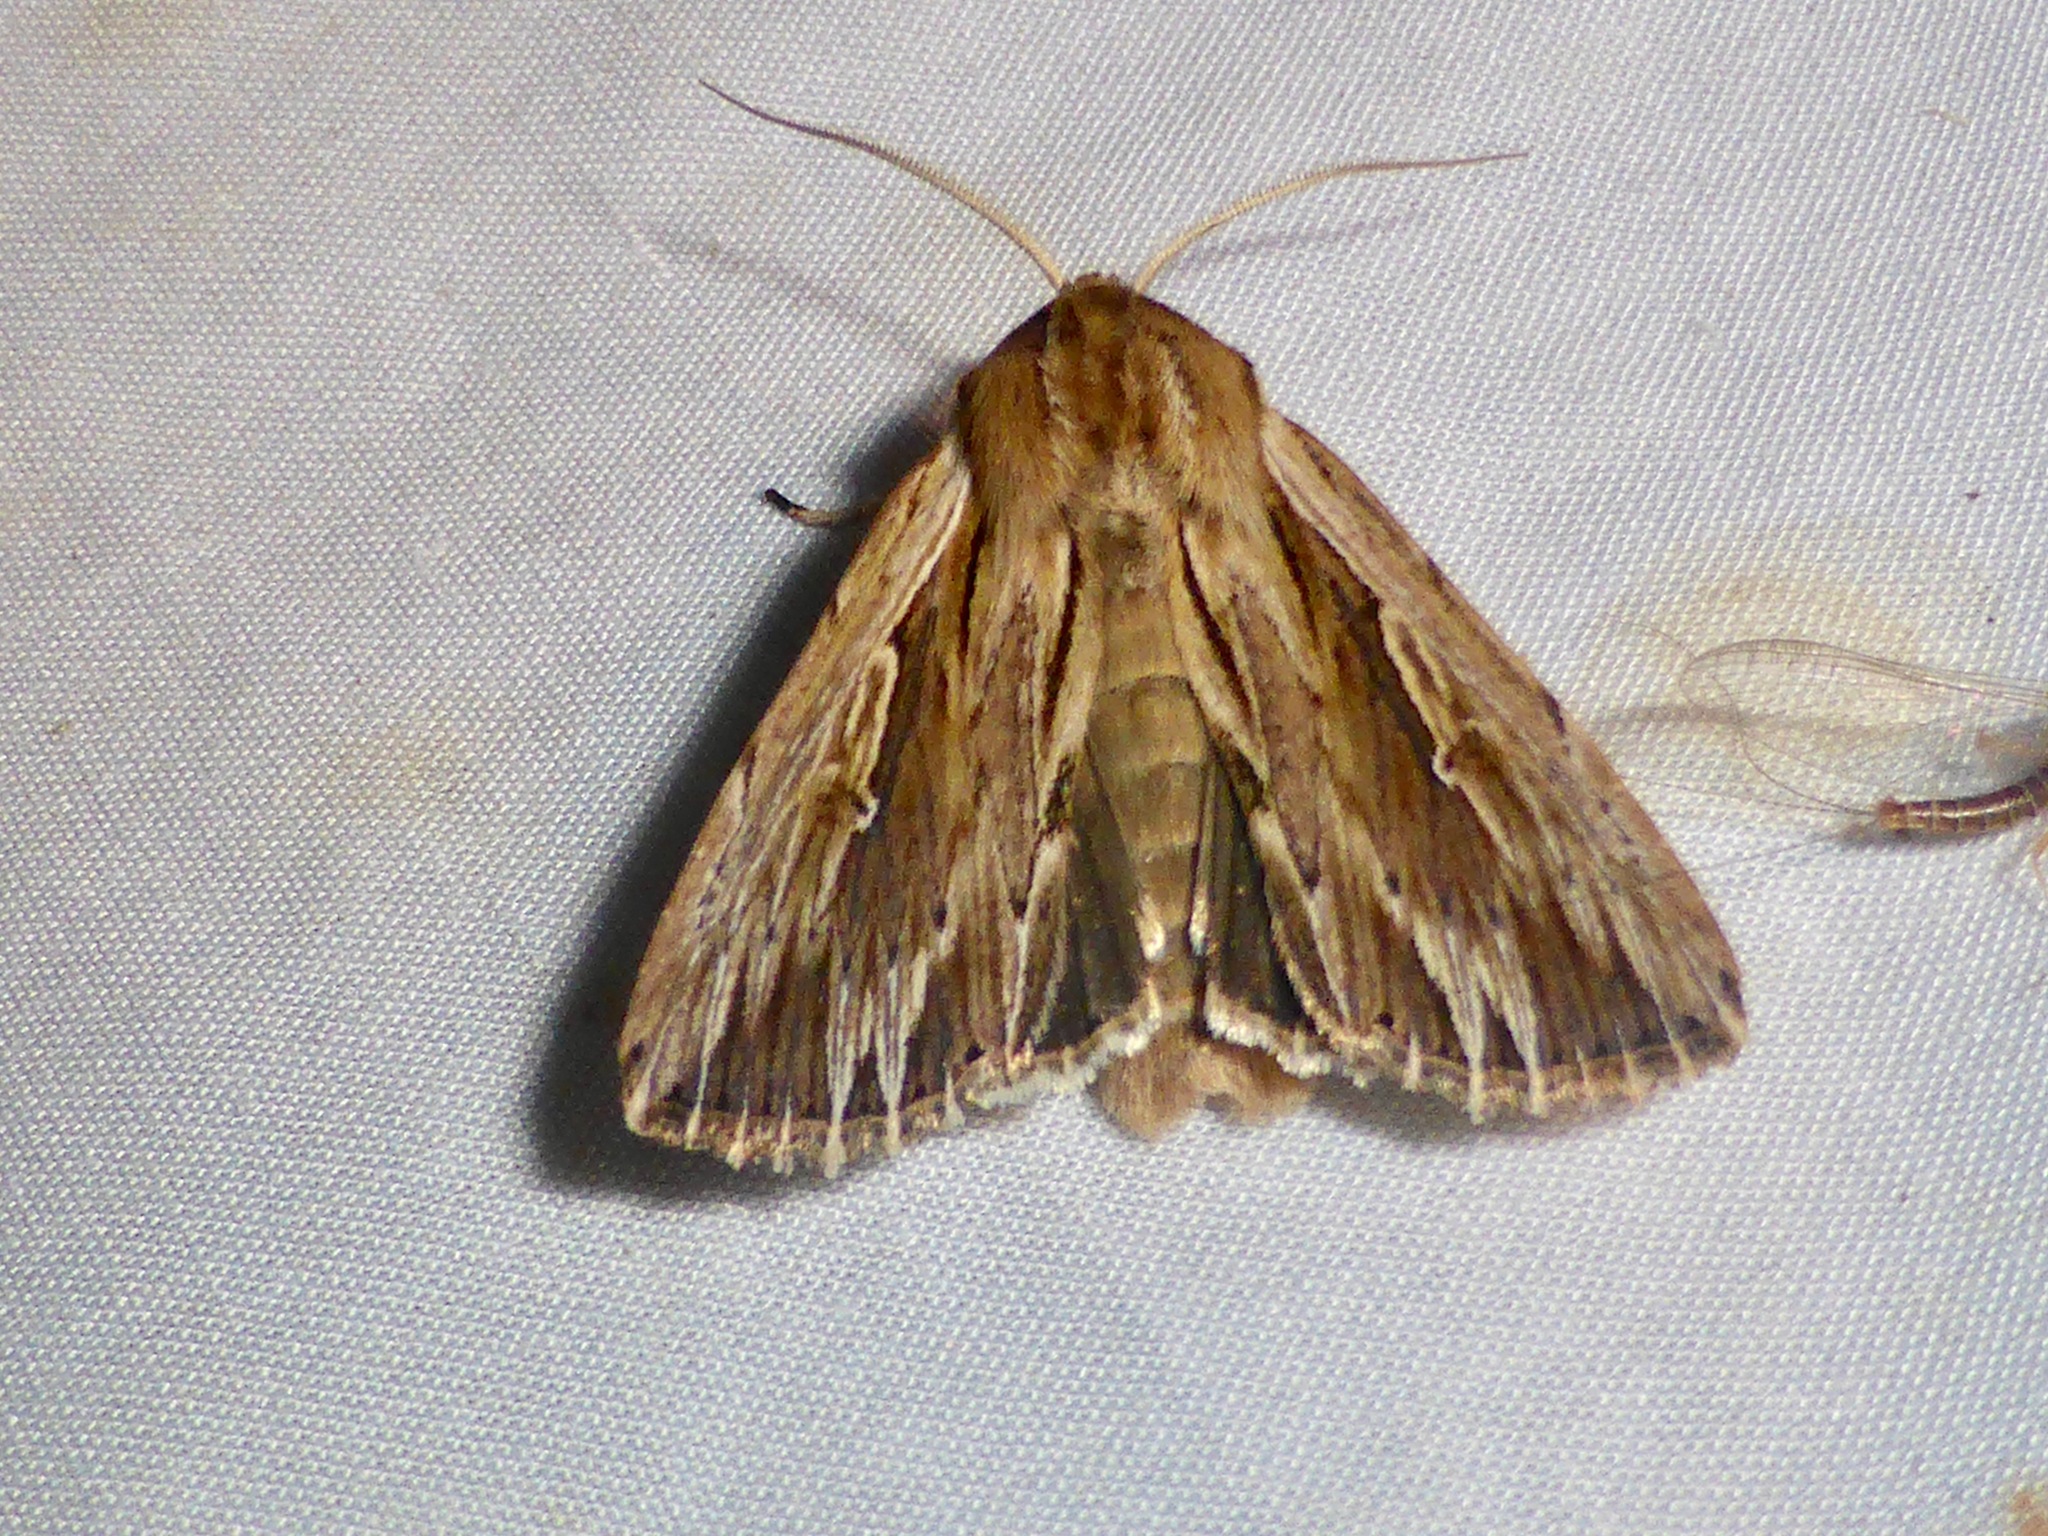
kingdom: Animalia
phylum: Arthropoda
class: Insecta
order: Lepidoptera
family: Noctuidae
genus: Persectania
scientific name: Persectania aversa
